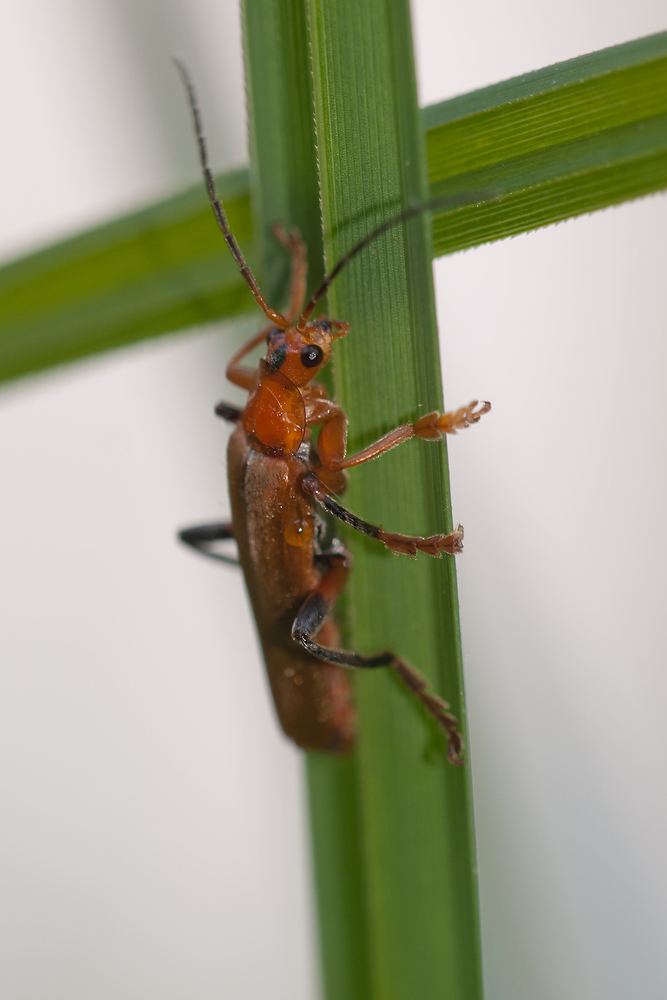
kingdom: Animalia
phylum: Arthropoda
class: Insecta
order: Coleoptera
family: Cantharidae
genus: Cantharis
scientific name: Cantharis livida
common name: Livid soldier beetle
